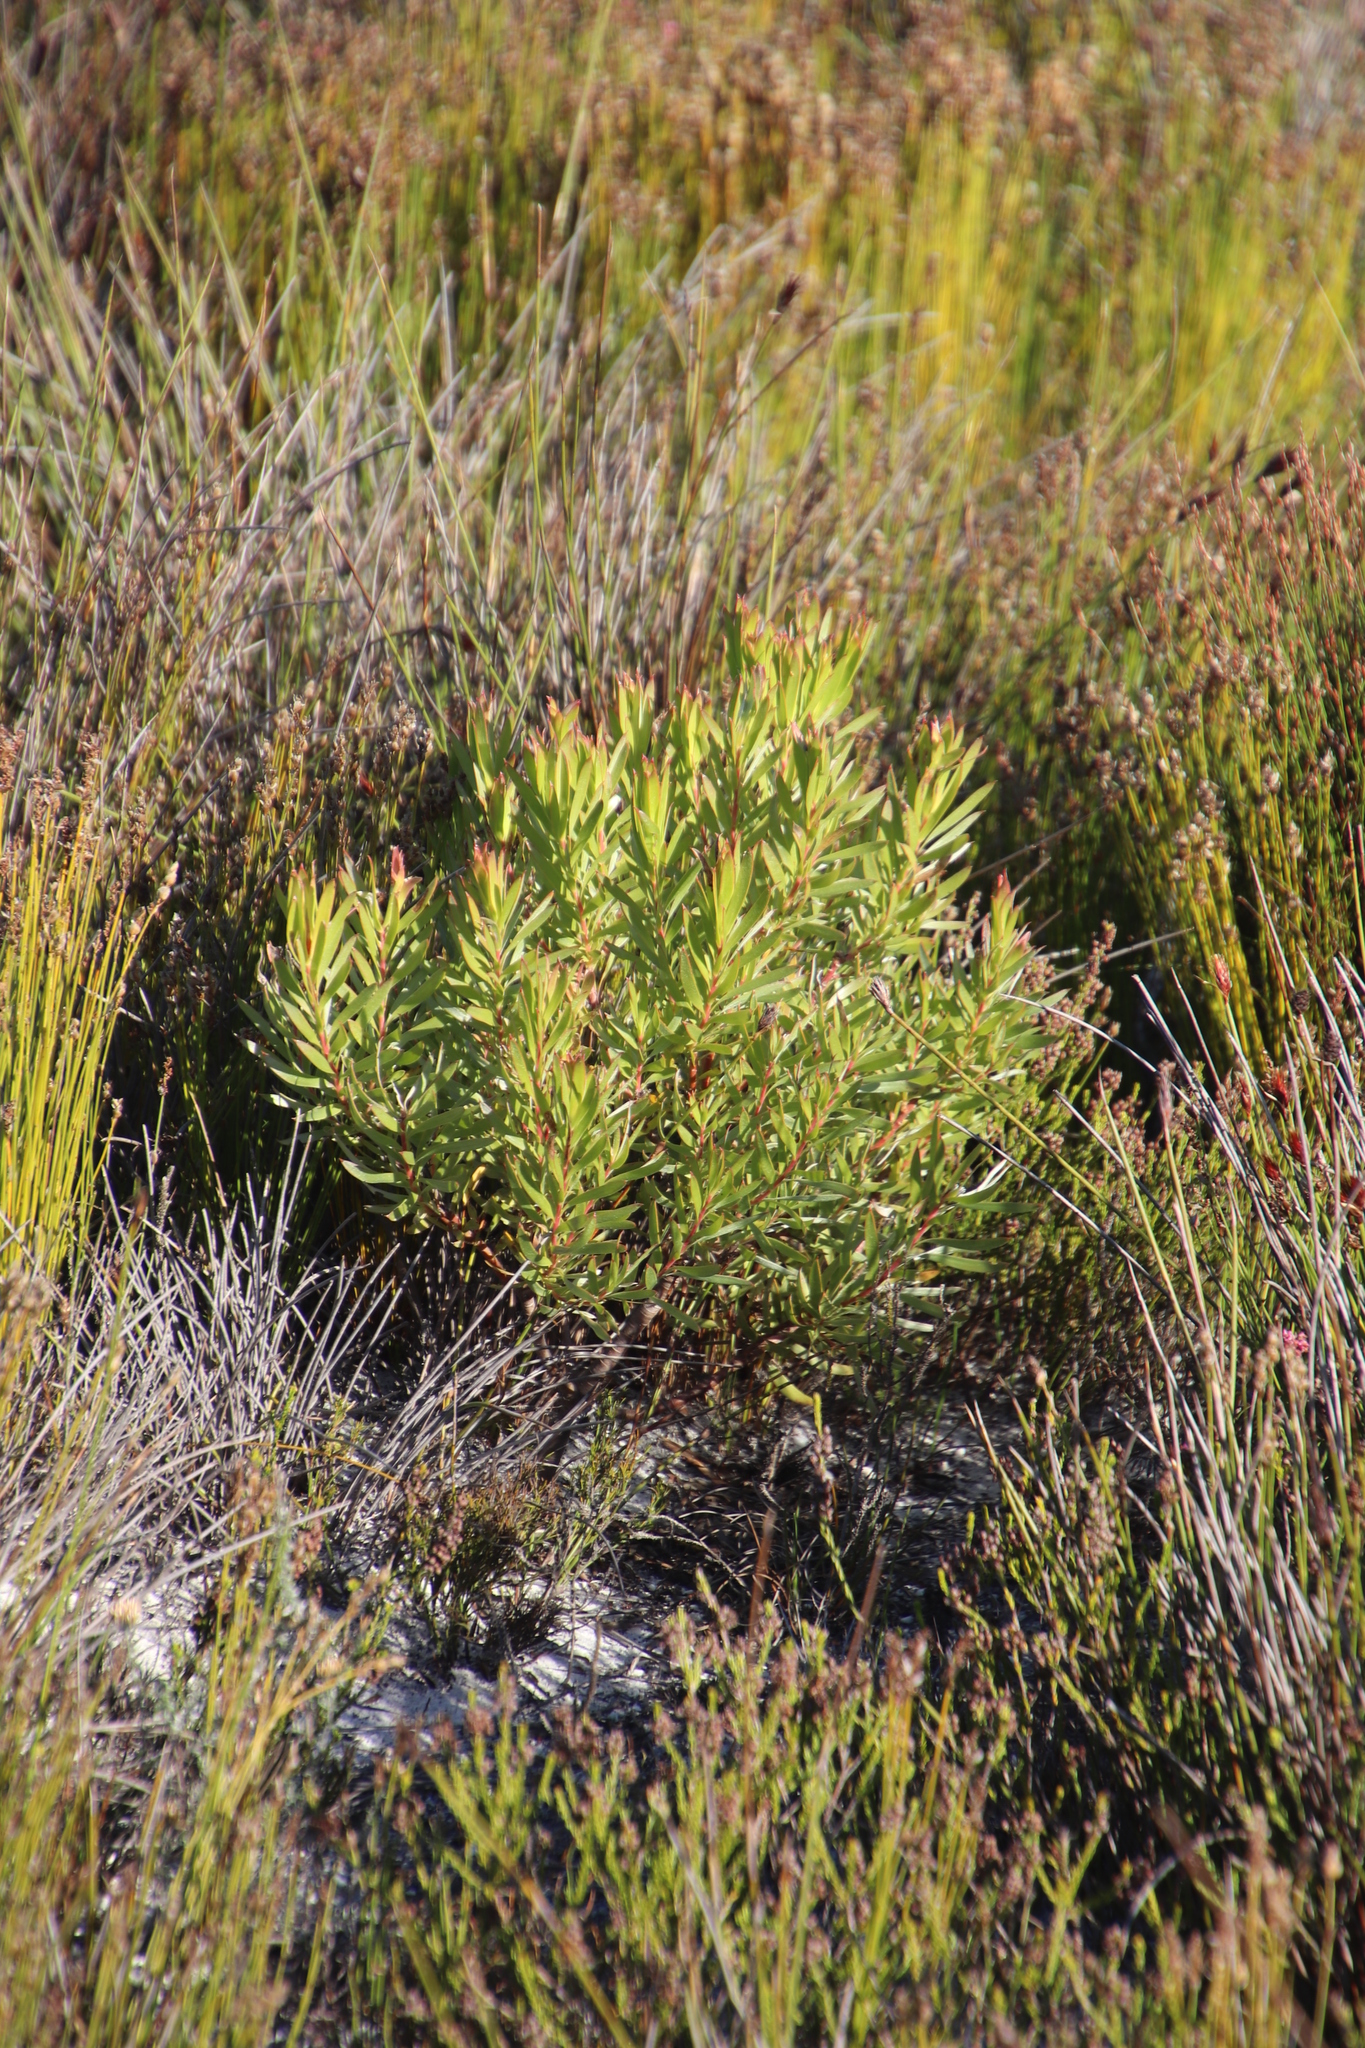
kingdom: Plantae
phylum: Tracheophyta
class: Magnoliopsida
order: Proteales
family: Proteaceae
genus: Leucadendron
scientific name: Leucadendron xanthoconus
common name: Sickle-leaf conebush
